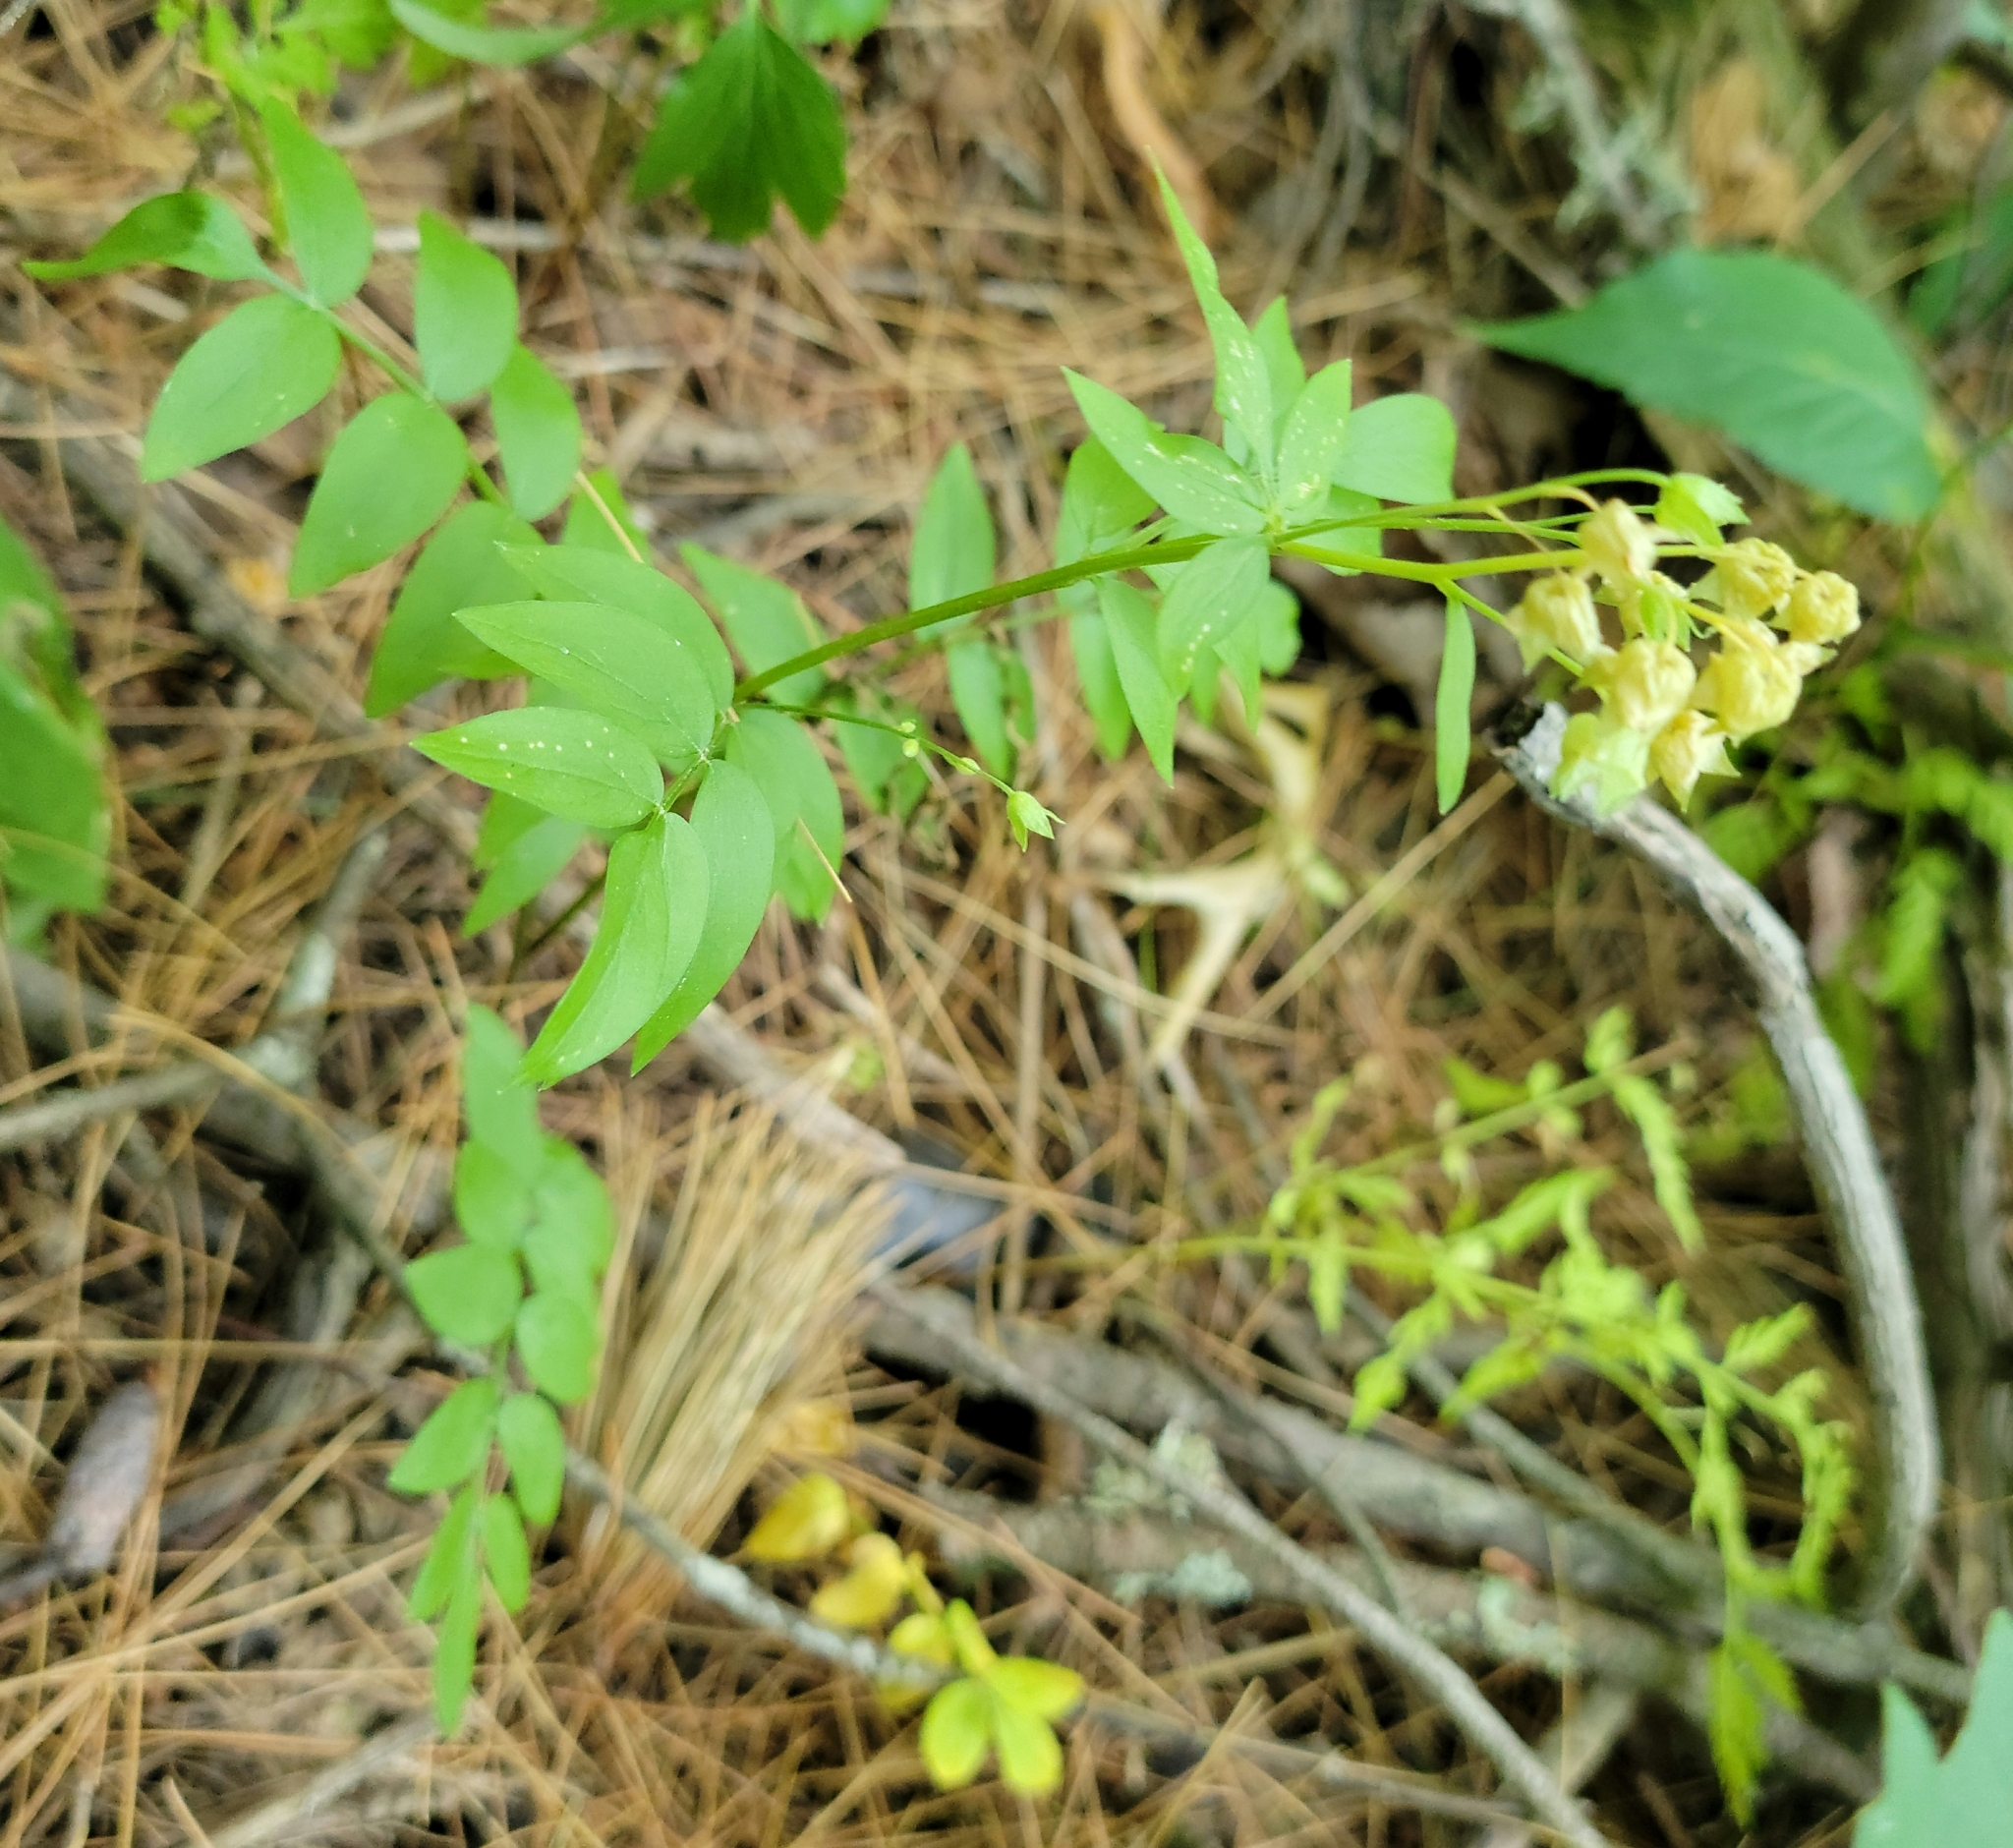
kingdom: Plantae
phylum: Tracheophyta
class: Magnoliopsida
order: Ericales
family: Polemoniaceae
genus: Polemonium
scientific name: Polemonium reptans
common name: Creeping jacob's-ladder
